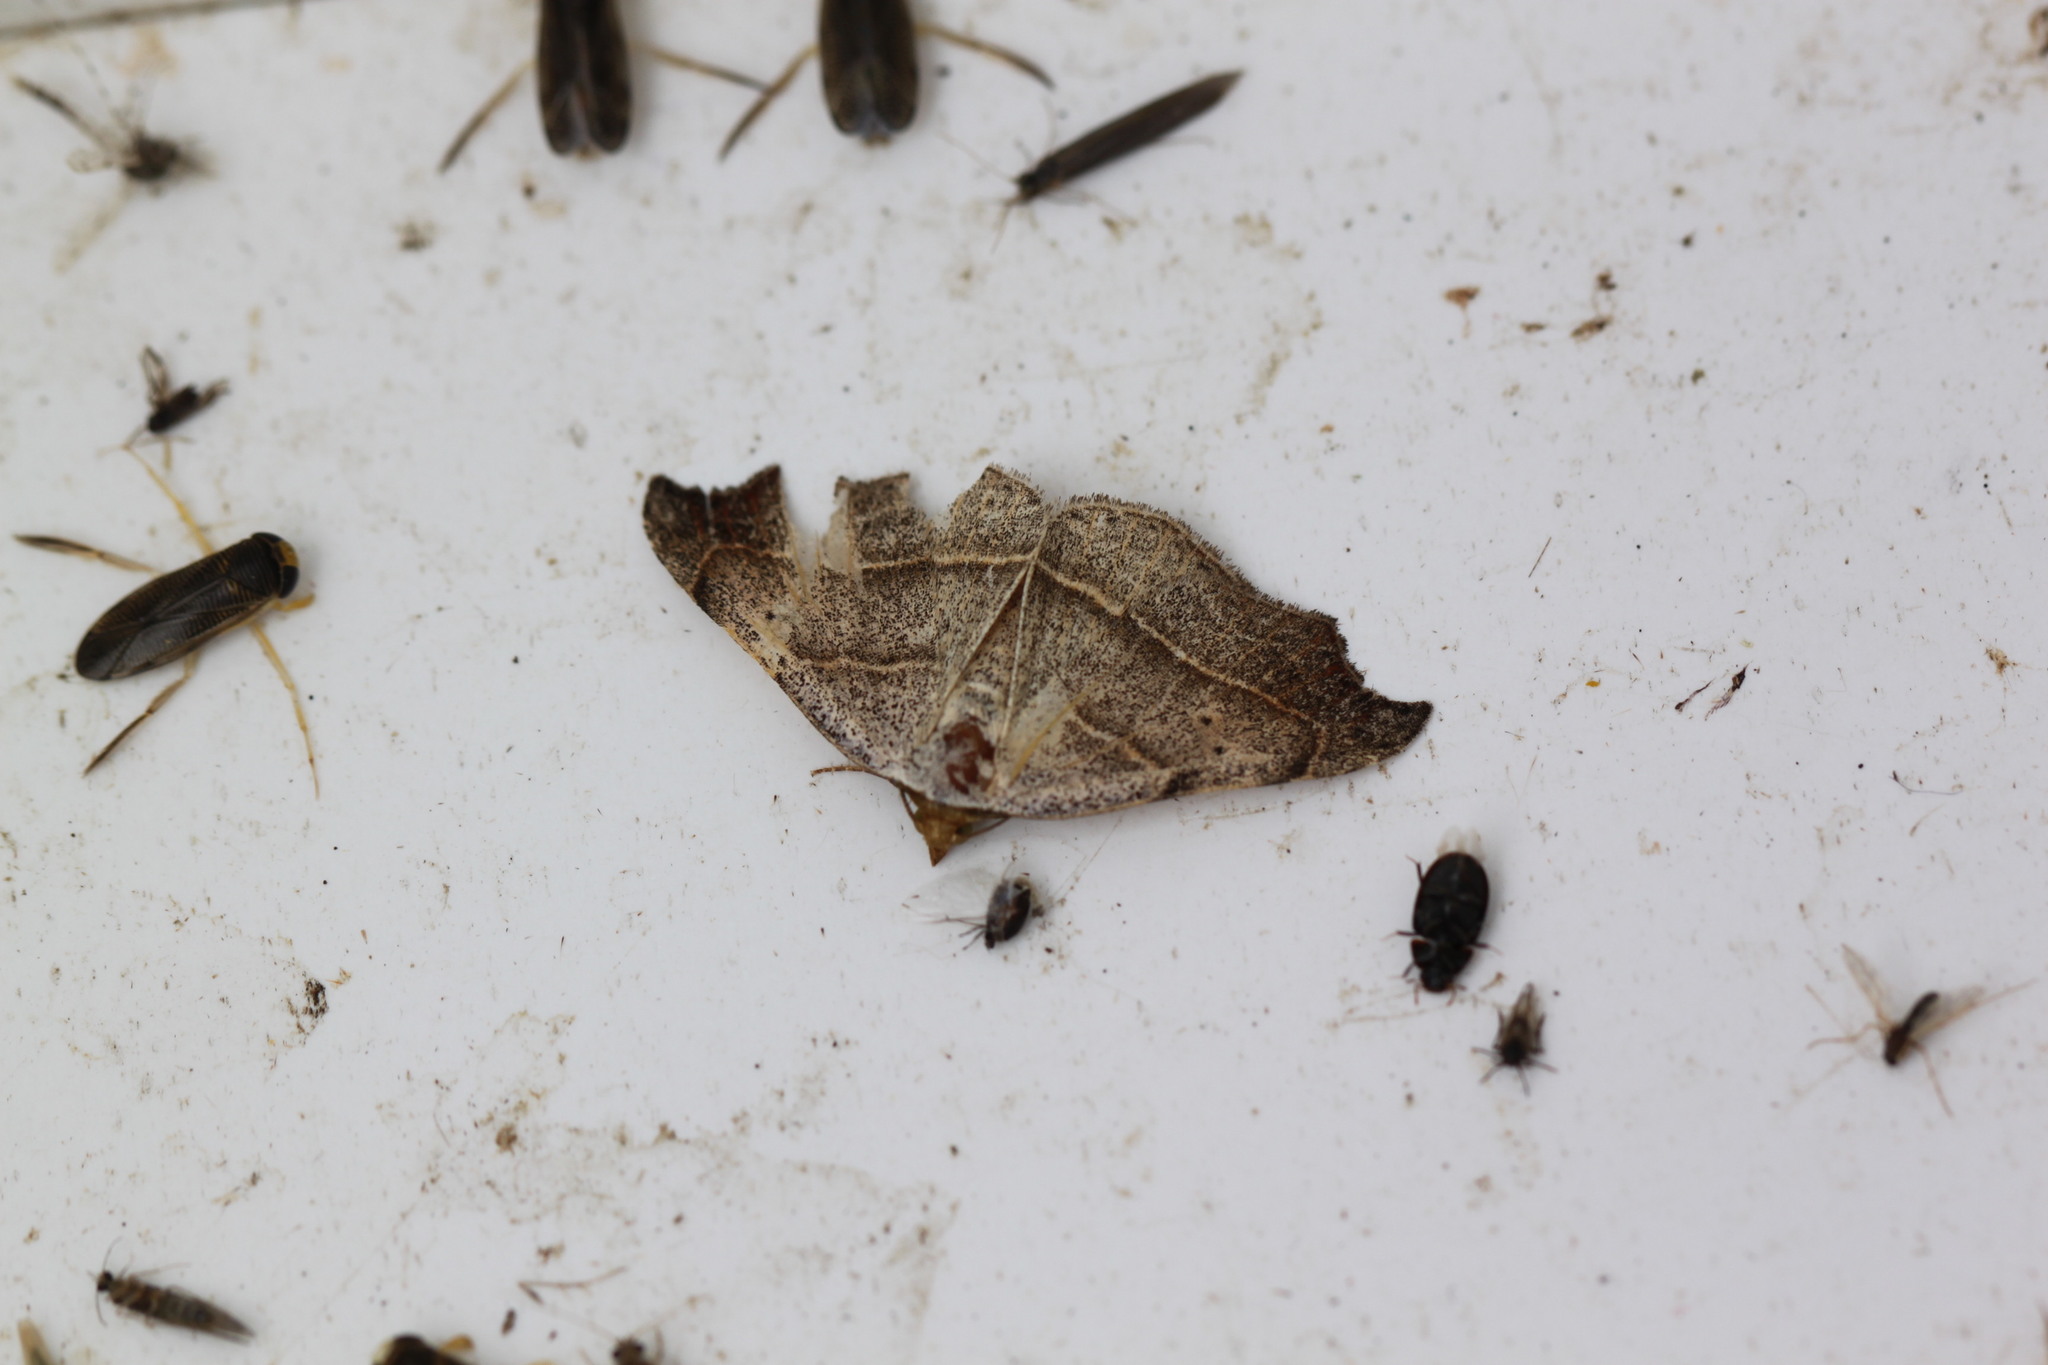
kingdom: Animalia
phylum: Arthropoda
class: Insecta
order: Lepidoptera
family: Erebidae
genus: Laspeyria
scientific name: Laspeyria flexula
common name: Beautiful hook-tip
